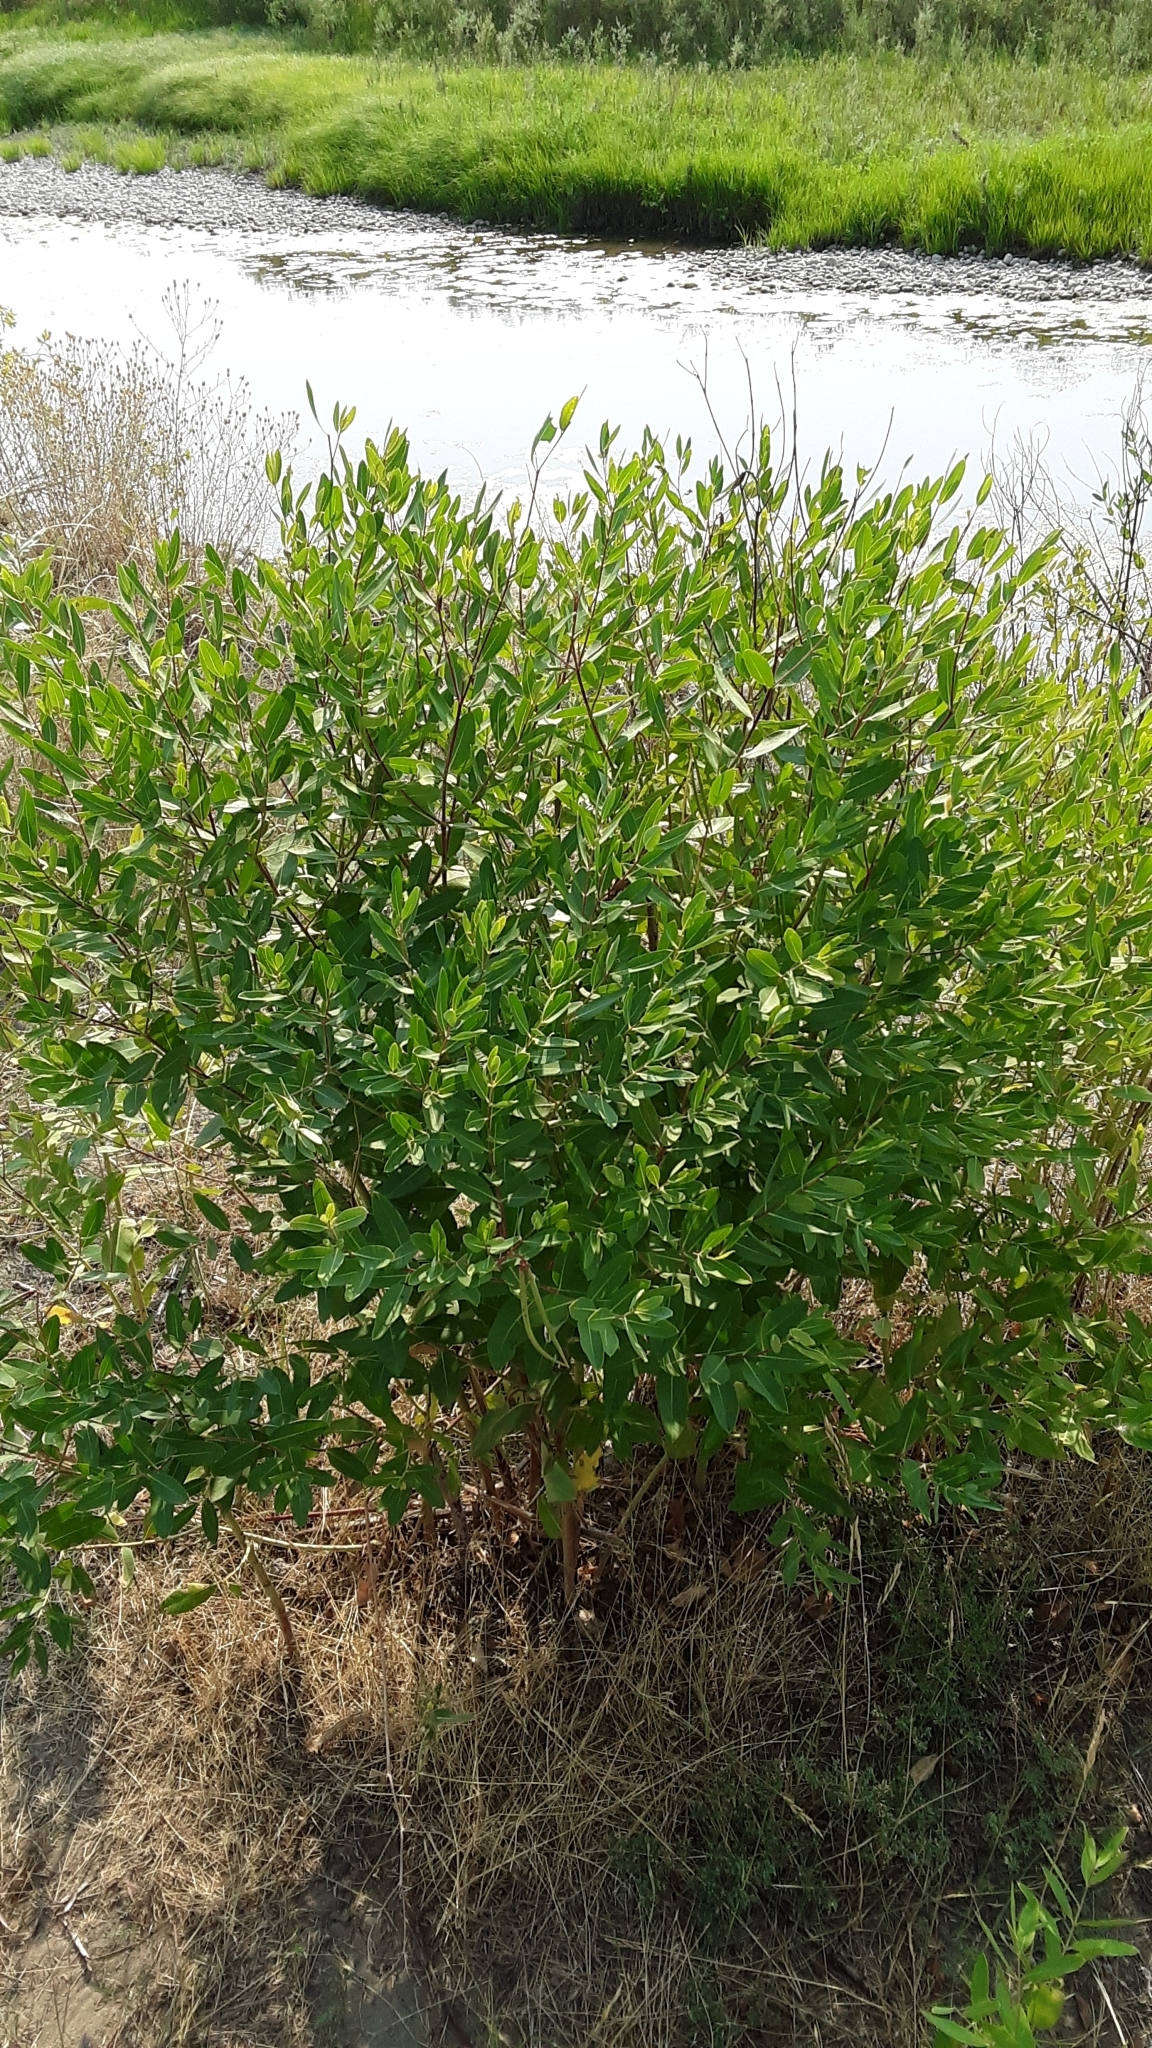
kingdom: Plantae
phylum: Tracheophyta
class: Magnoliopsida
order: Gentianales
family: Apocynaceae
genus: Apocynum
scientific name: Apocynum cannabinum
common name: Hemp dogbane
